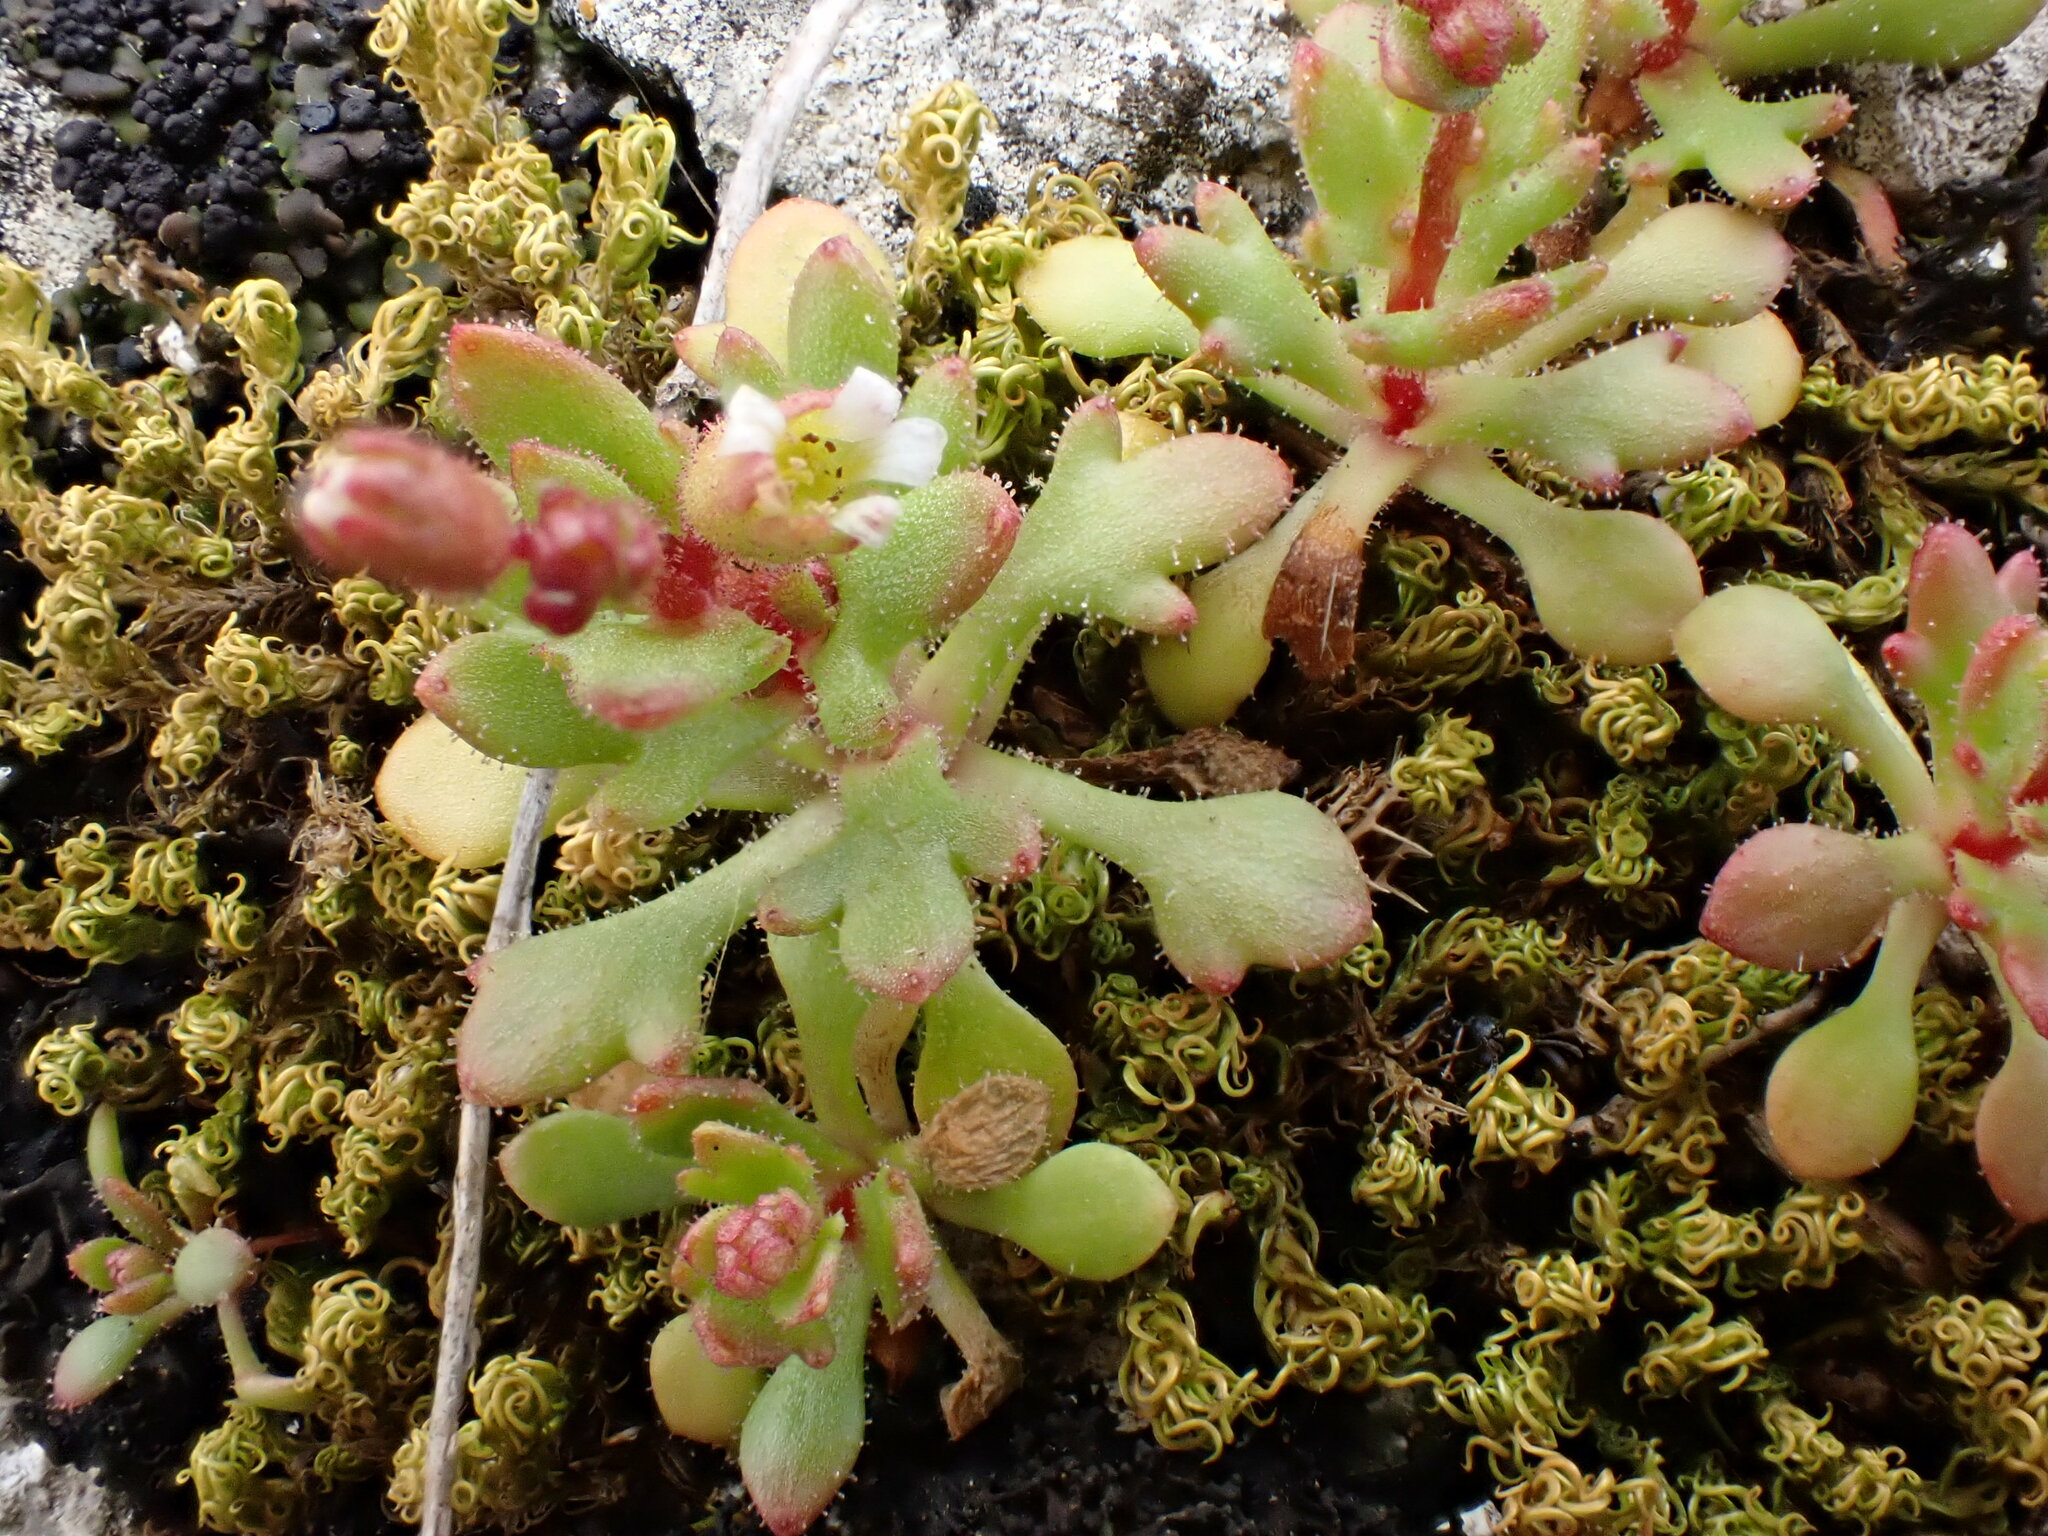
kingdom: Plantae
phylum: Tracheophyta
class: Magnoliopsida
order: Saxifragales
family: Saxifragaceae
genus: Saxifraga
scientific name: Saxifraga tridactylites
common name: Rue-leaved saxifrage
